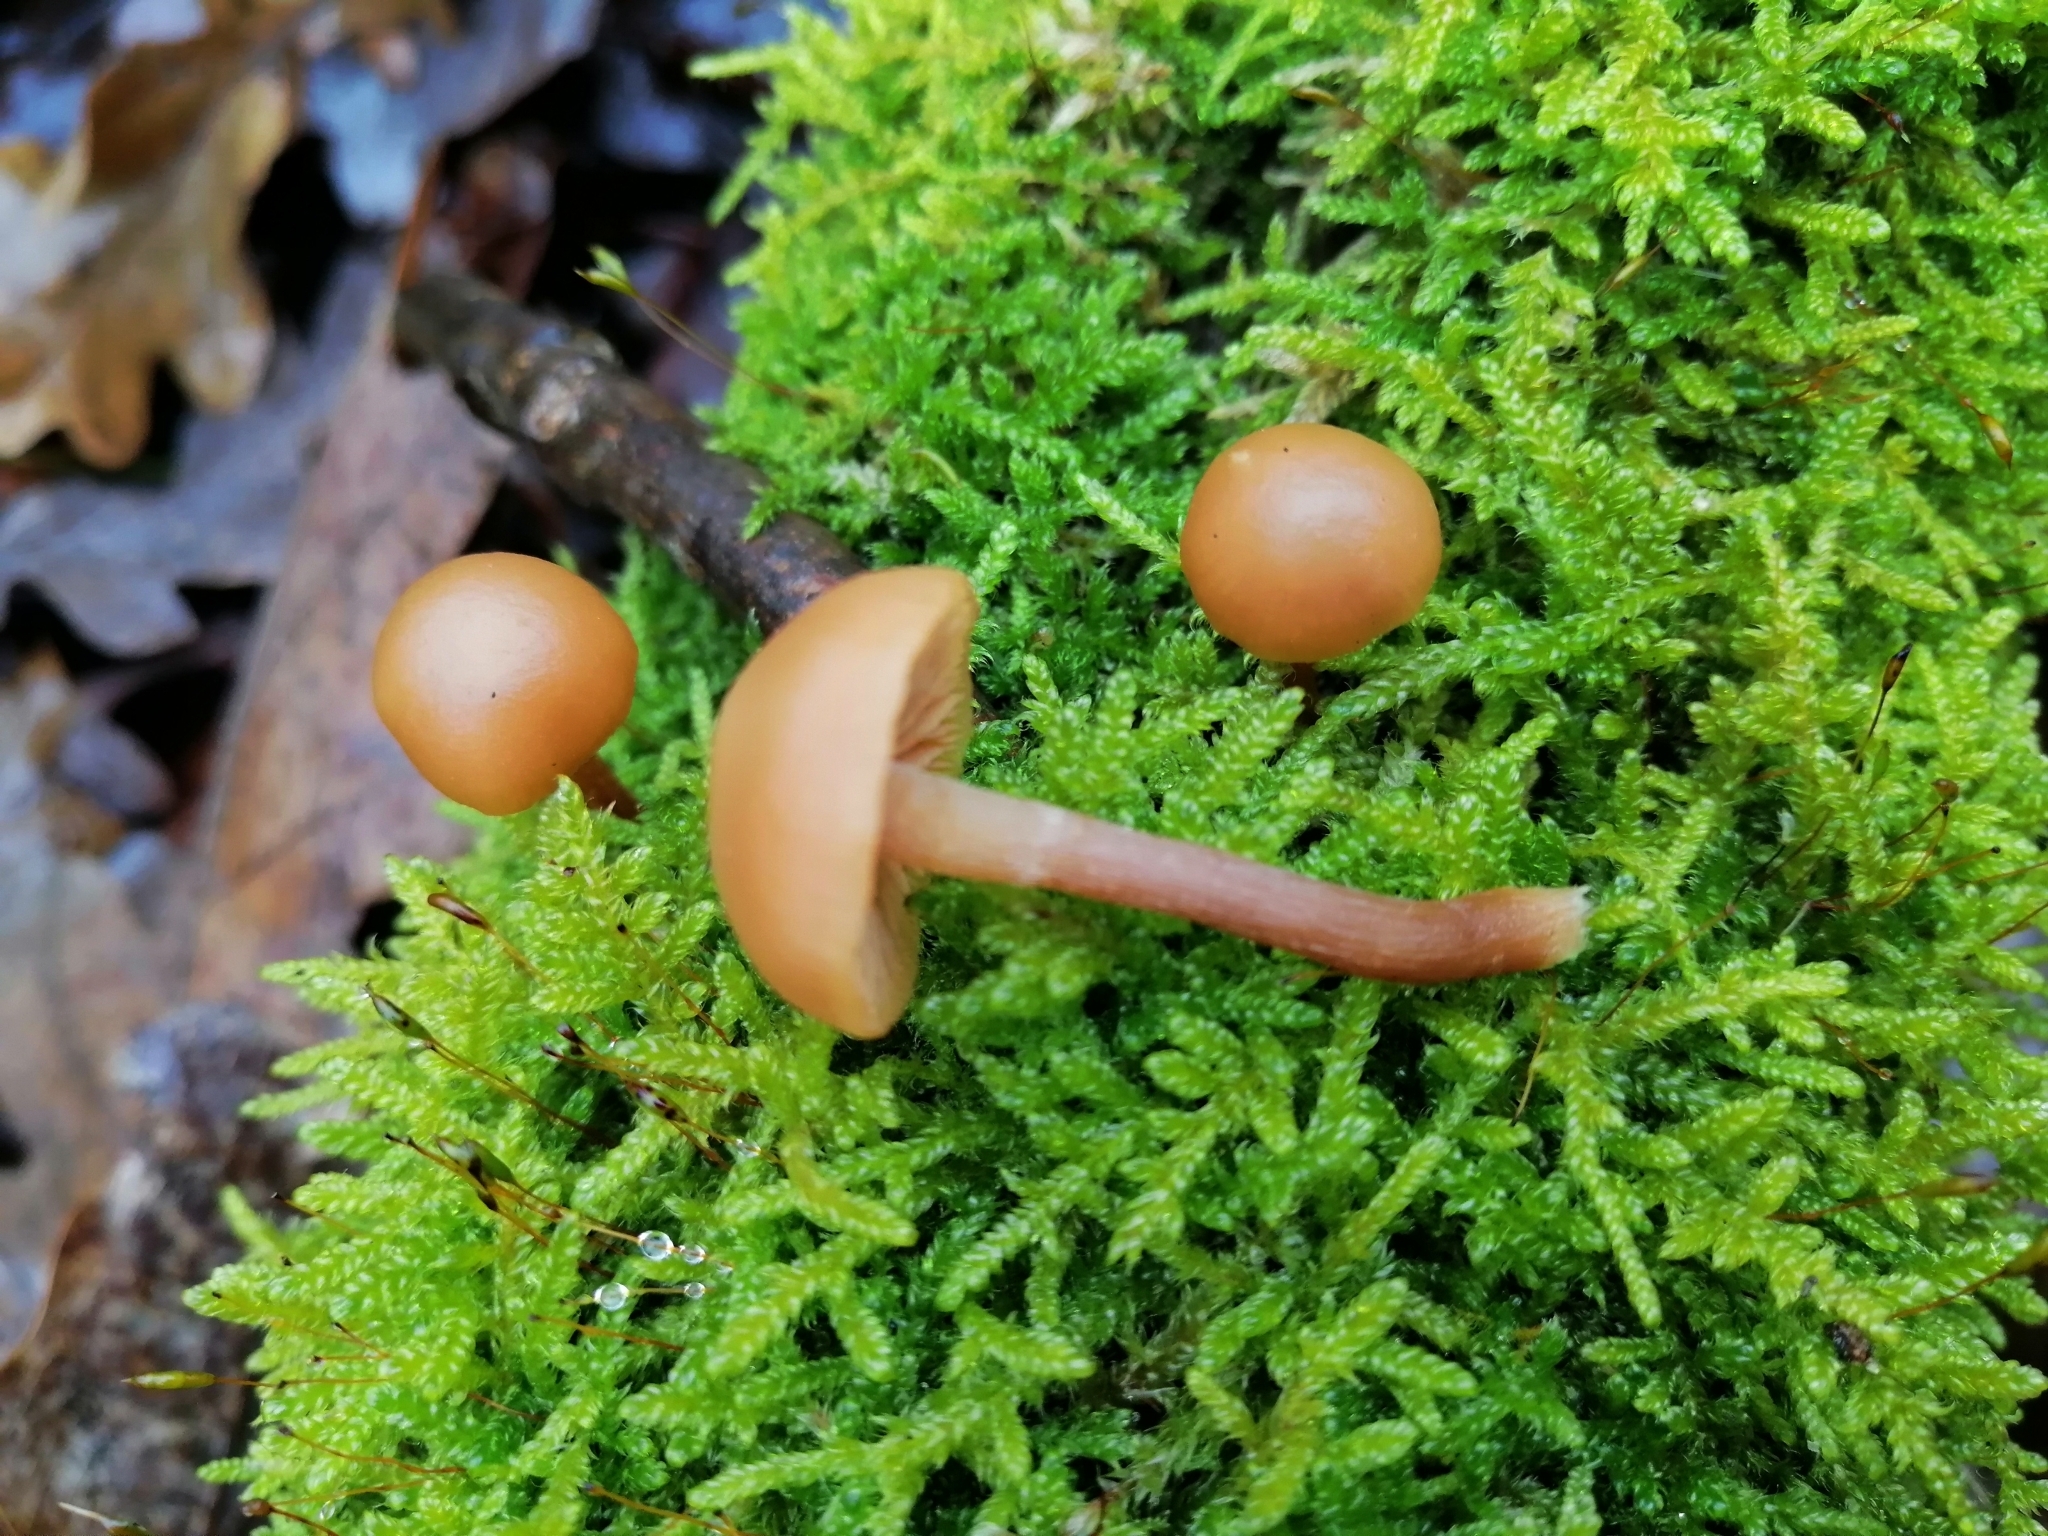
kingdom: Fungi
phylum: Basidiomycota
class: Agaricomycetes
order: Agaricales
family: Hymenogastraceae
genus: Galerina
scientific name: Galerina marginata
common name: Funeral bell
